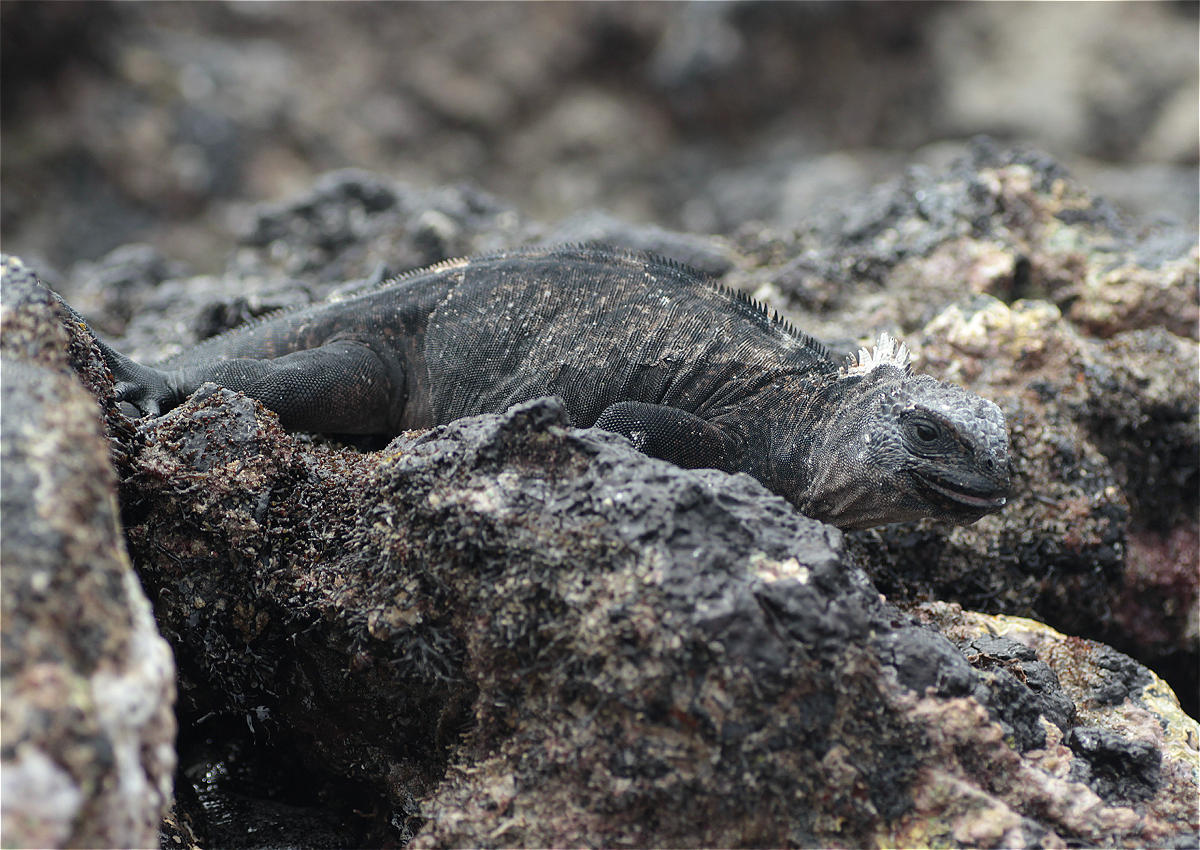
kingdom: Animalia
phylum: Chordata
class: Squamata
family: Iguanidae
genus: Amblyrhynchus
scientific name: Amblyrhynchus cristatus
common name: Marine iguana
